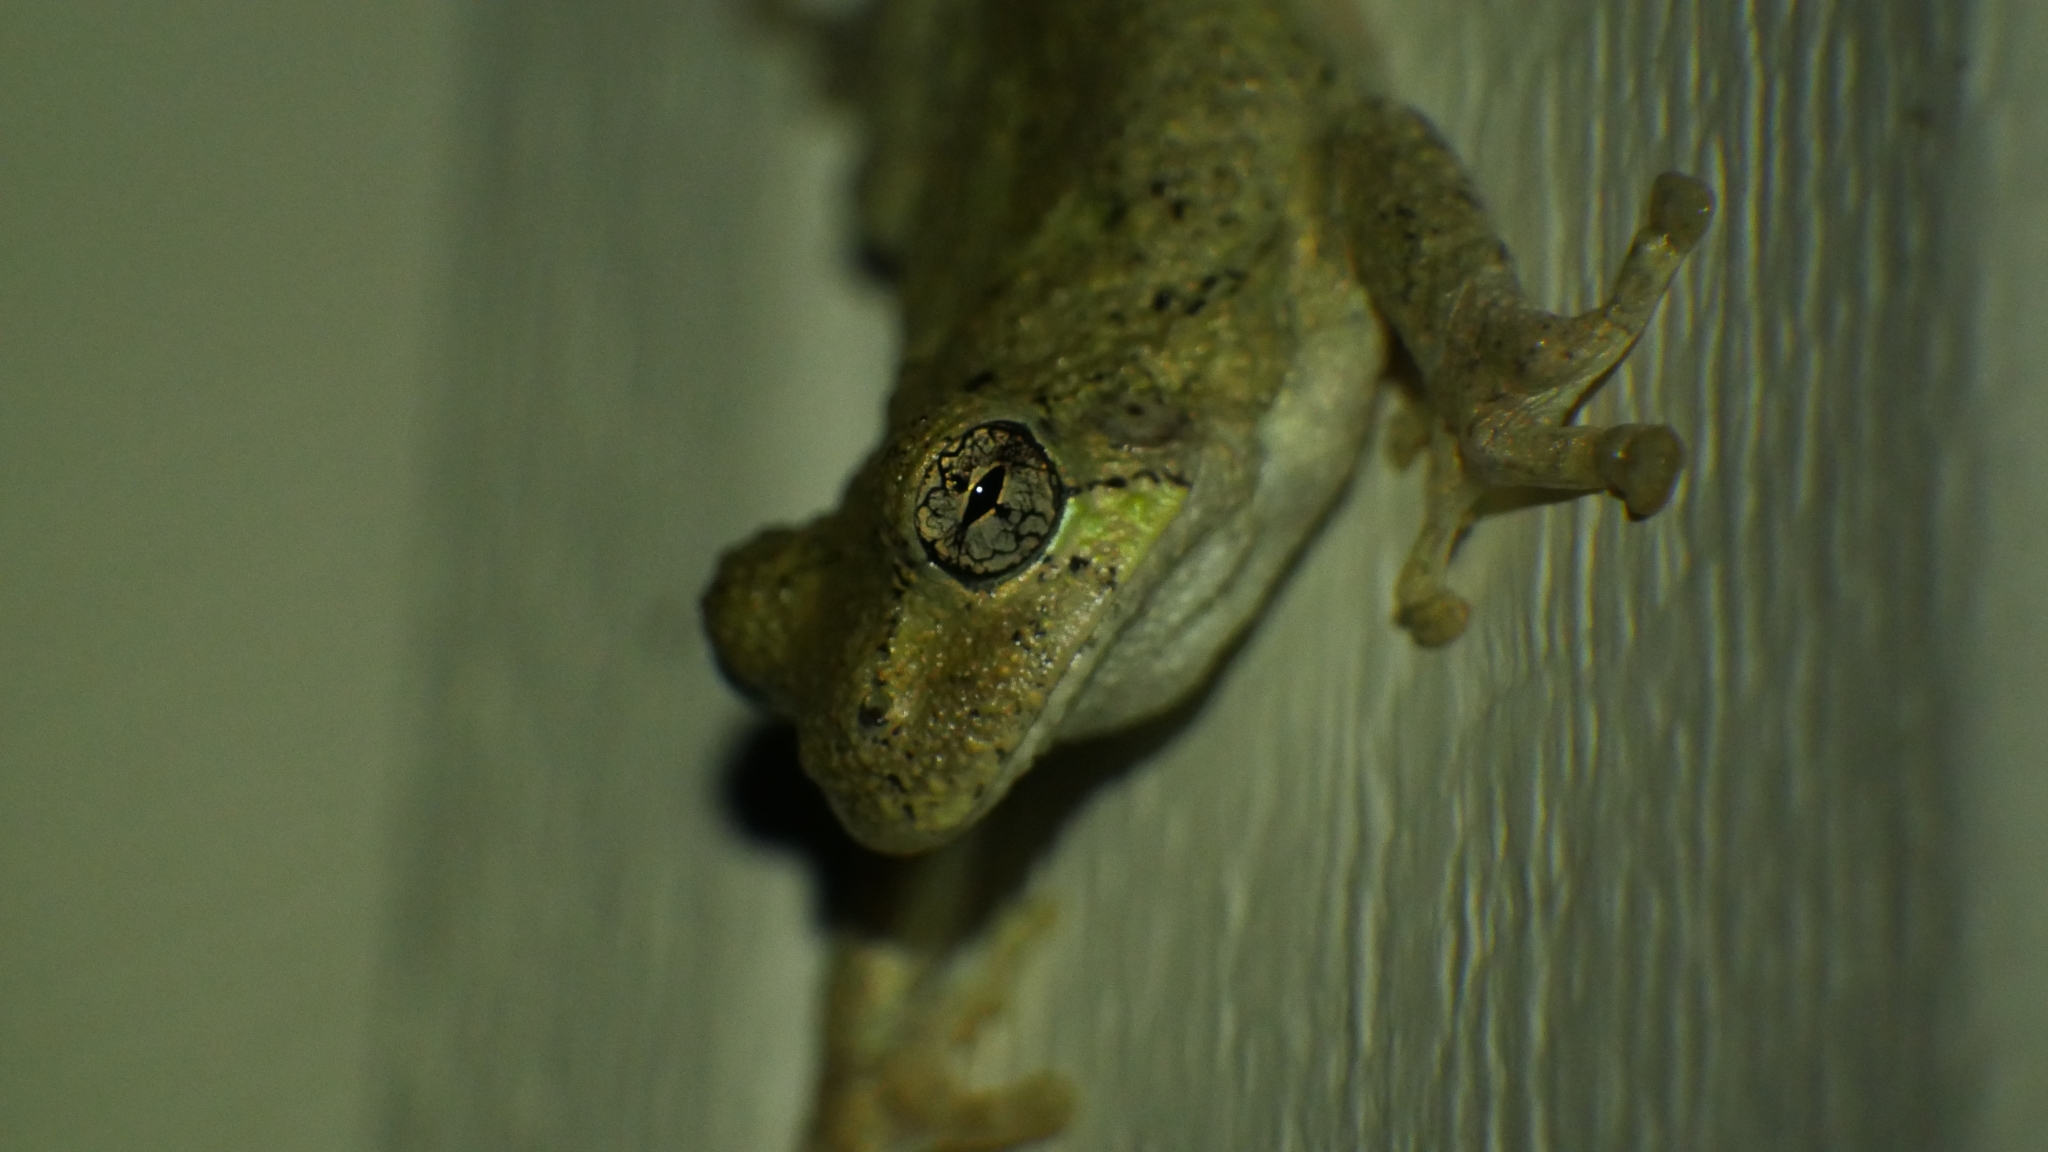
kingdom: Animalia
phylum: Chordata
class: Amphibia
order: Anura
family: Hylidae
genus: Dryophytes
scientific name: Dryophytes chrysoscelis
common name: Cope's gray treefrog
